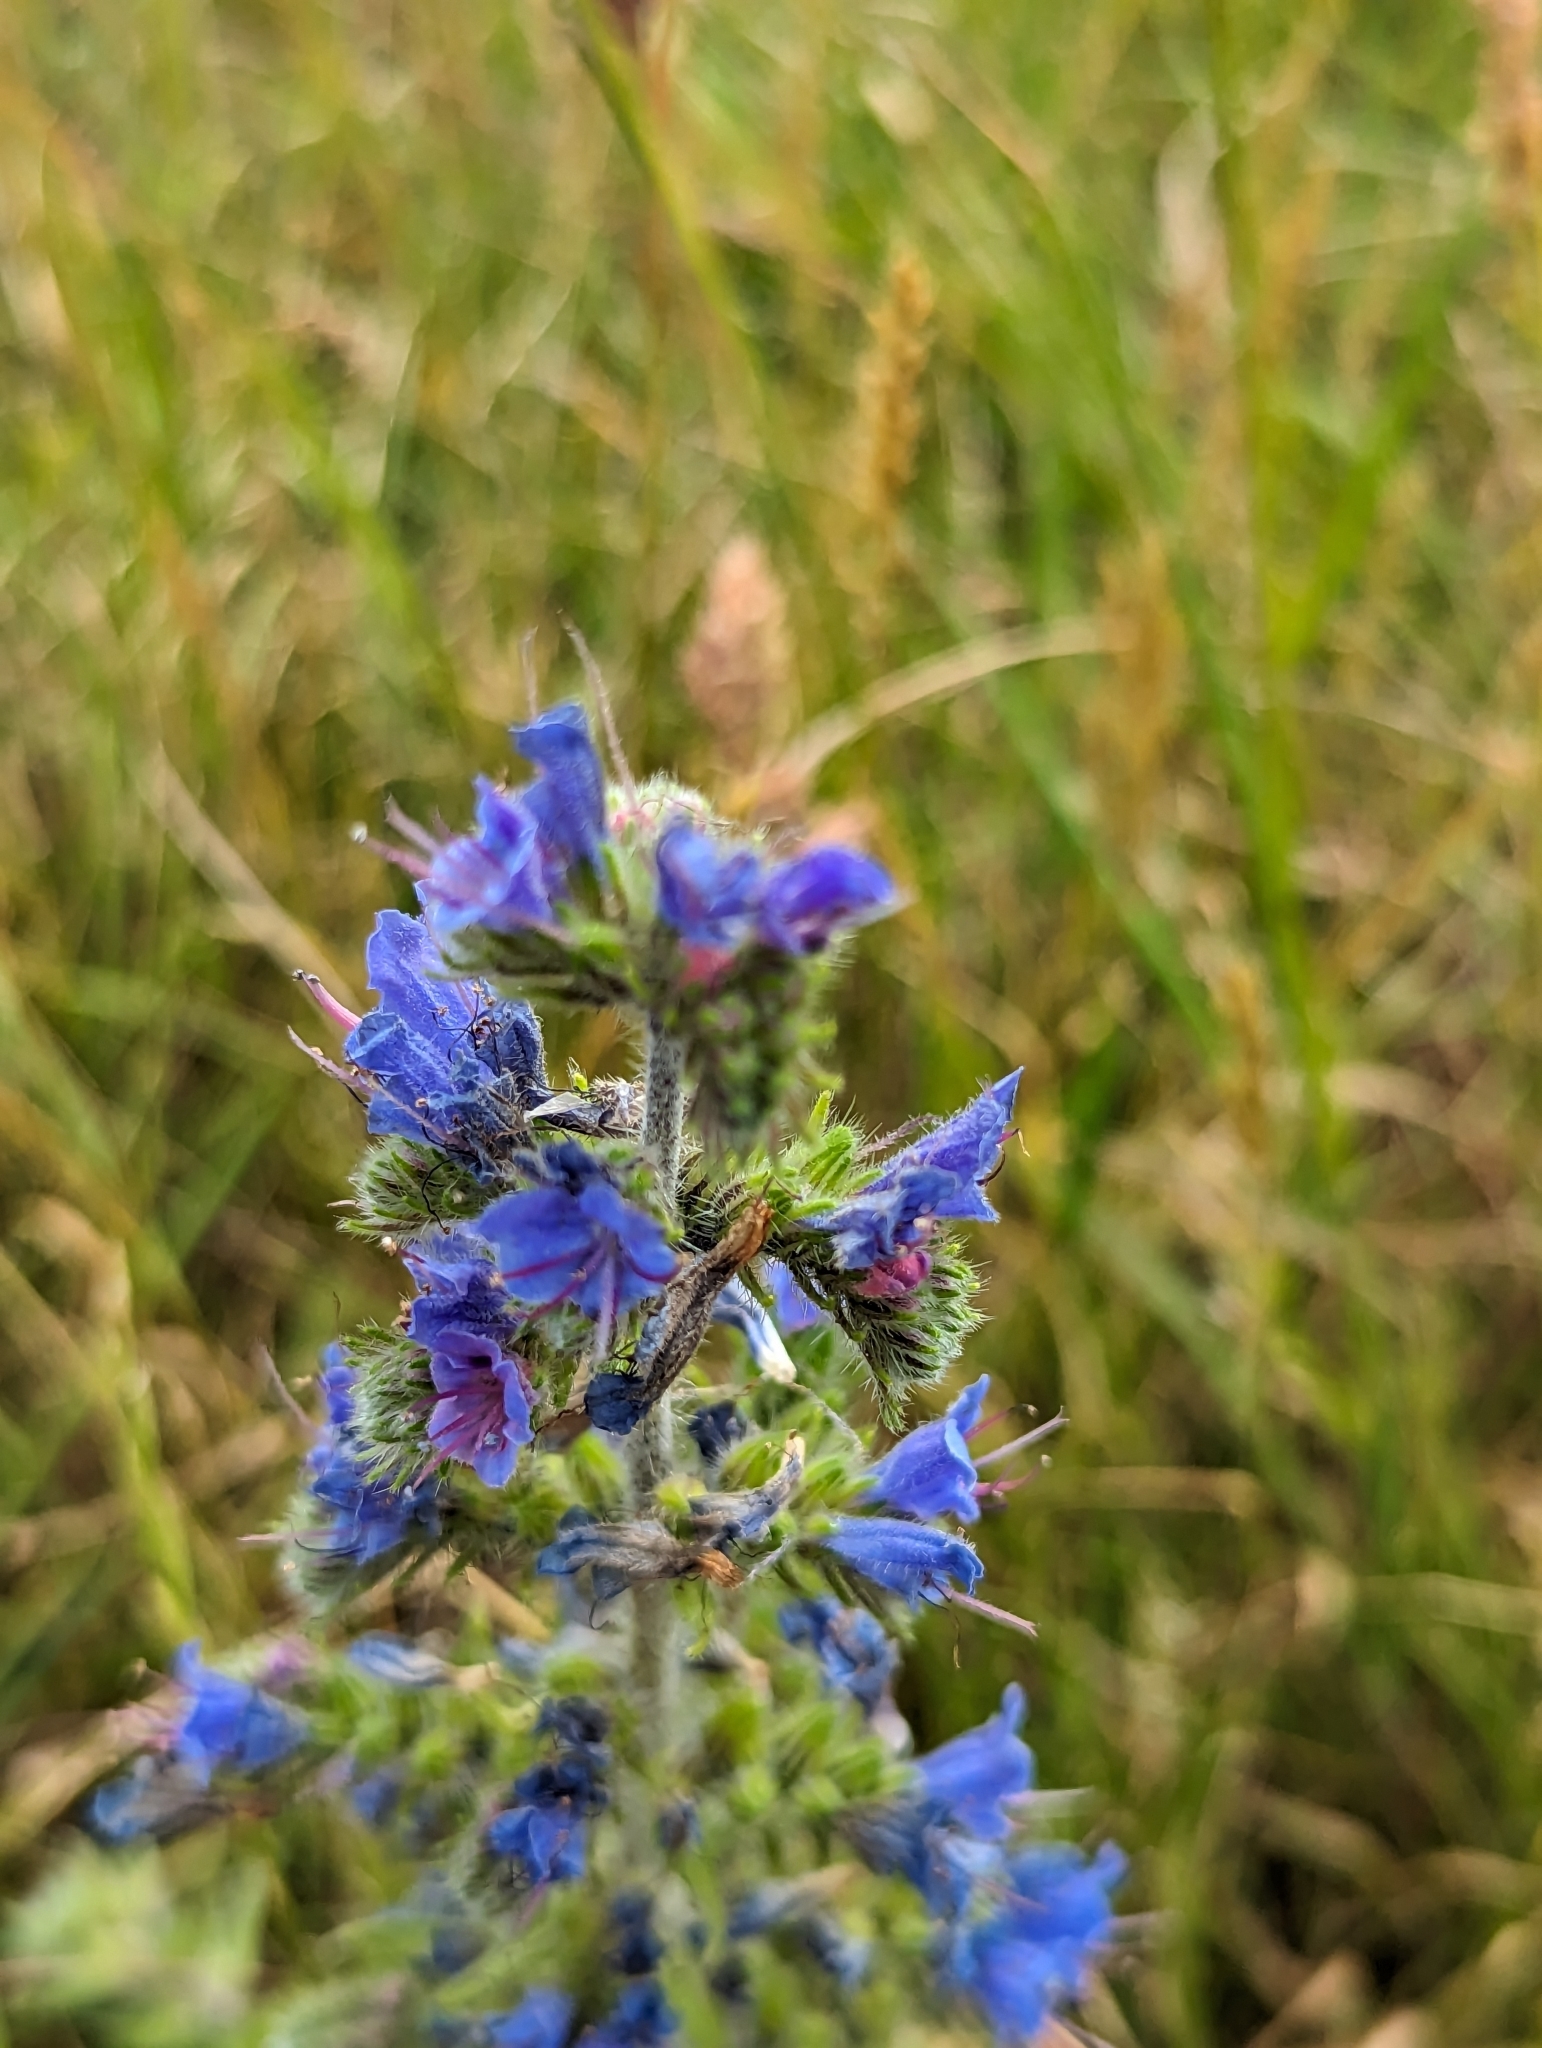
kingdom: Plantae
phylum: Tracheophyta
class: Magnoliopsida
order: Boraginales
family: Boraginaceae
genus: Echium
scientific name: Echium vulgare
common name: Common viper's bugloss
